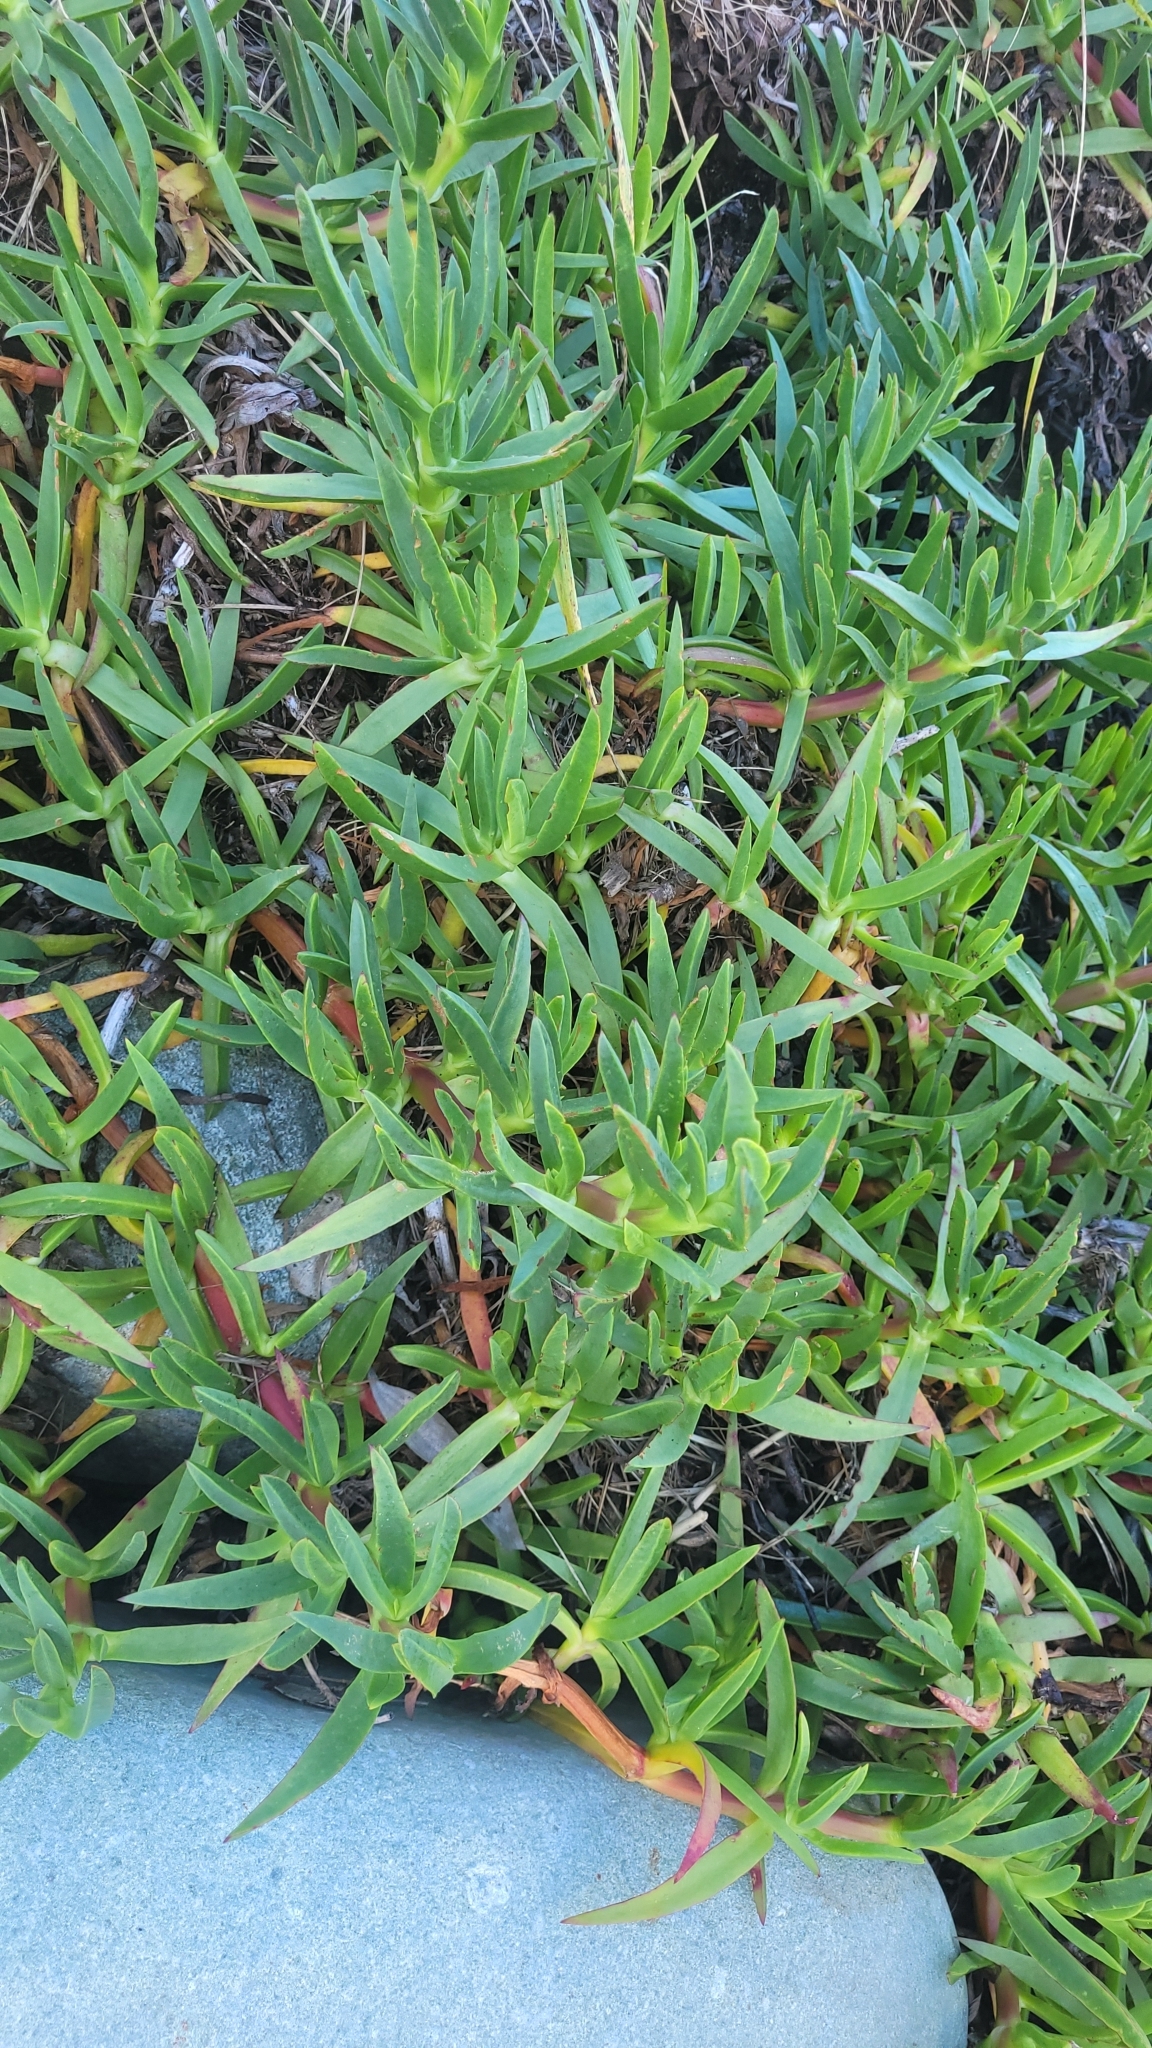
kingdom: Plantae
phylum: Tracheophyta
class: Magnoliopsida
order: Caryophyllales
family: Aizoaceae
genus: Carpobrotus
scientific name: Carpobrotus edulis
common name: Hottentot-fig
